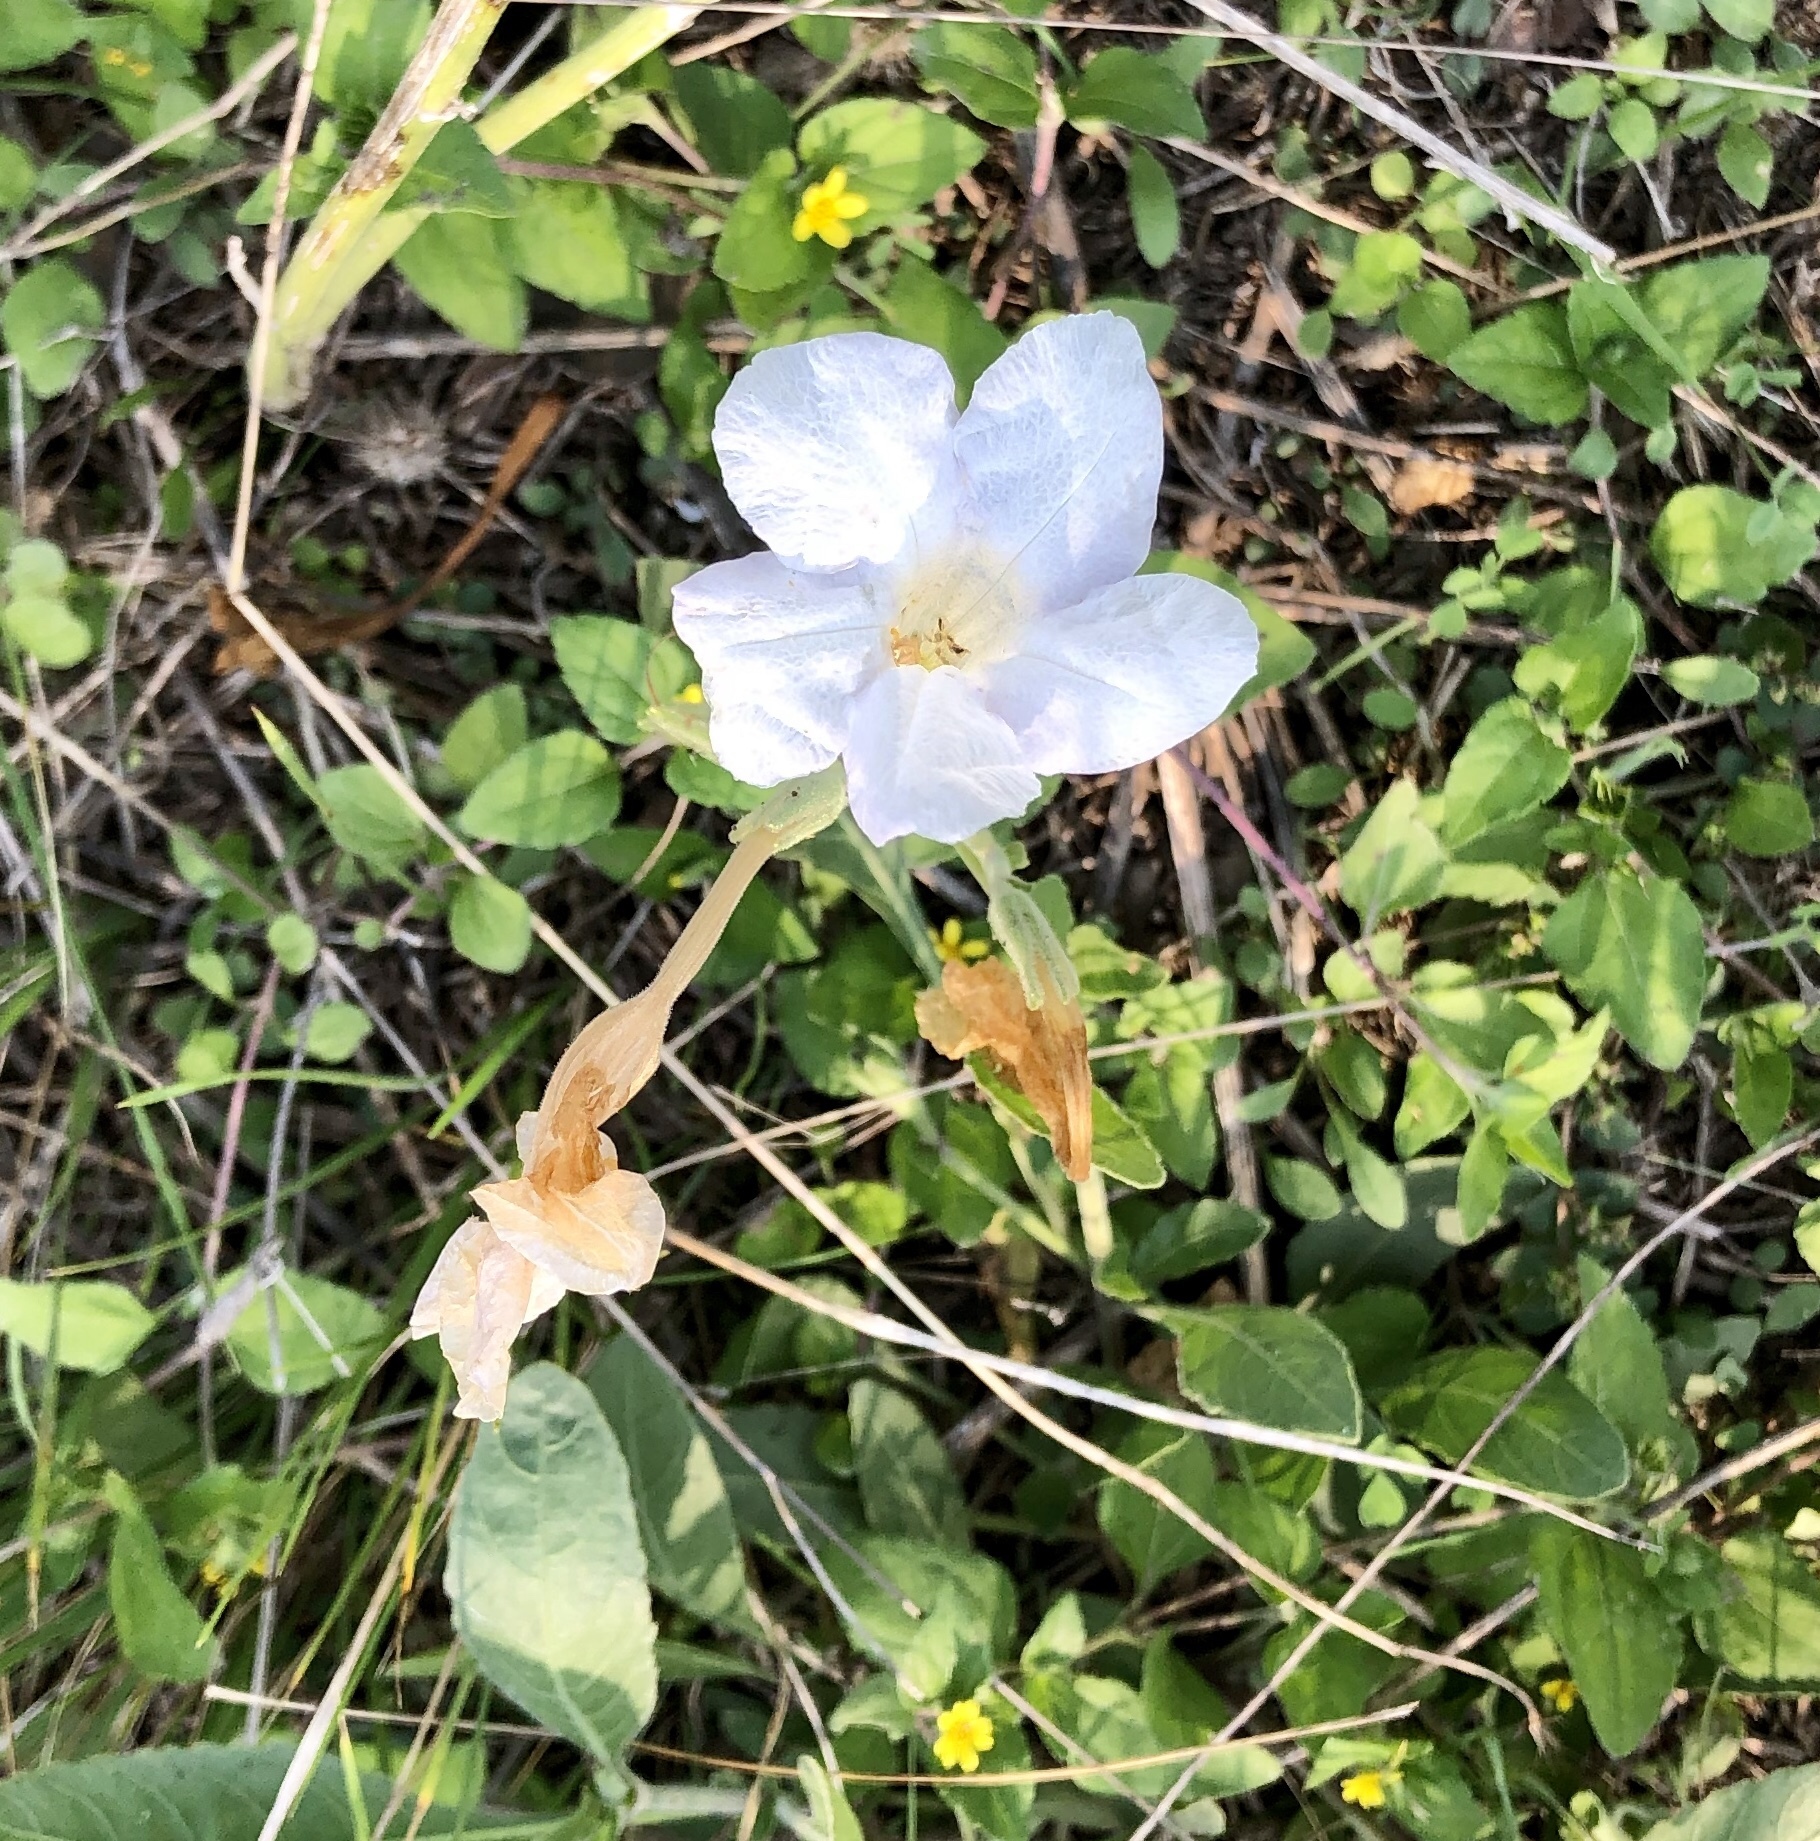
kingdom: Plantae
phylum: Tracheophyta
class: Magnoliopsida
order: Lamiales
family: Acanthaceae
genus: Ruellia
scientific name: Ruellia metziae
